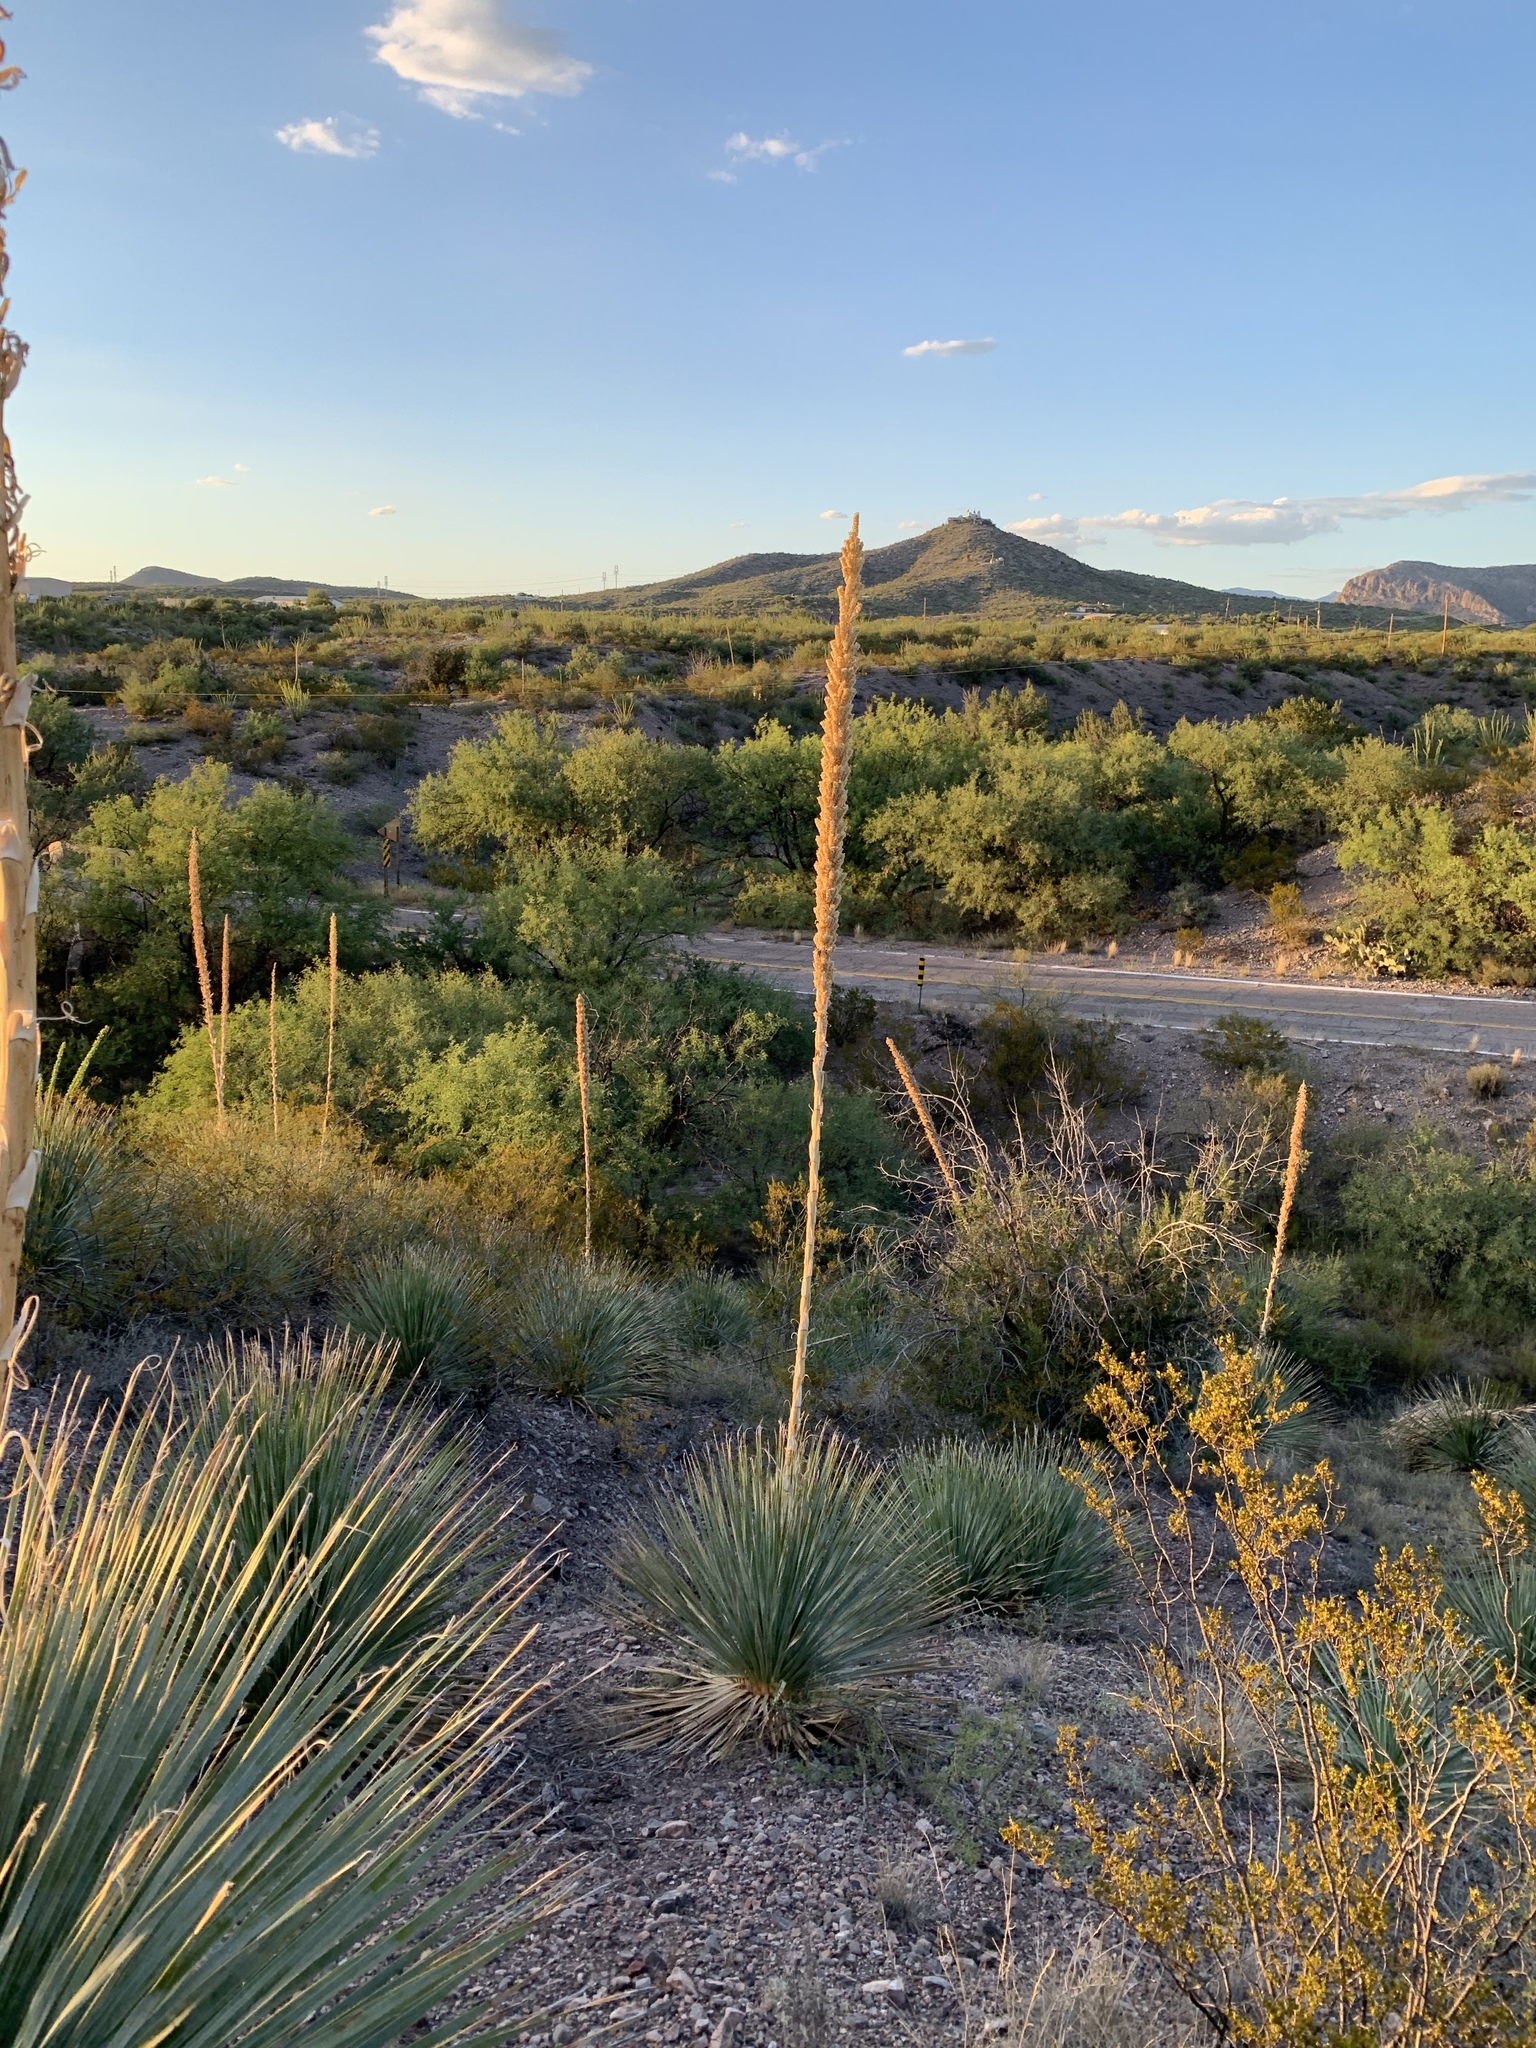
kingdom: Plantae
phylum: Tracheophyta
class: Liliopsida
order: Asparagales
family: Asparagaceae
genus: Dasylirion
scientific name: Dasylirion wheeleri
